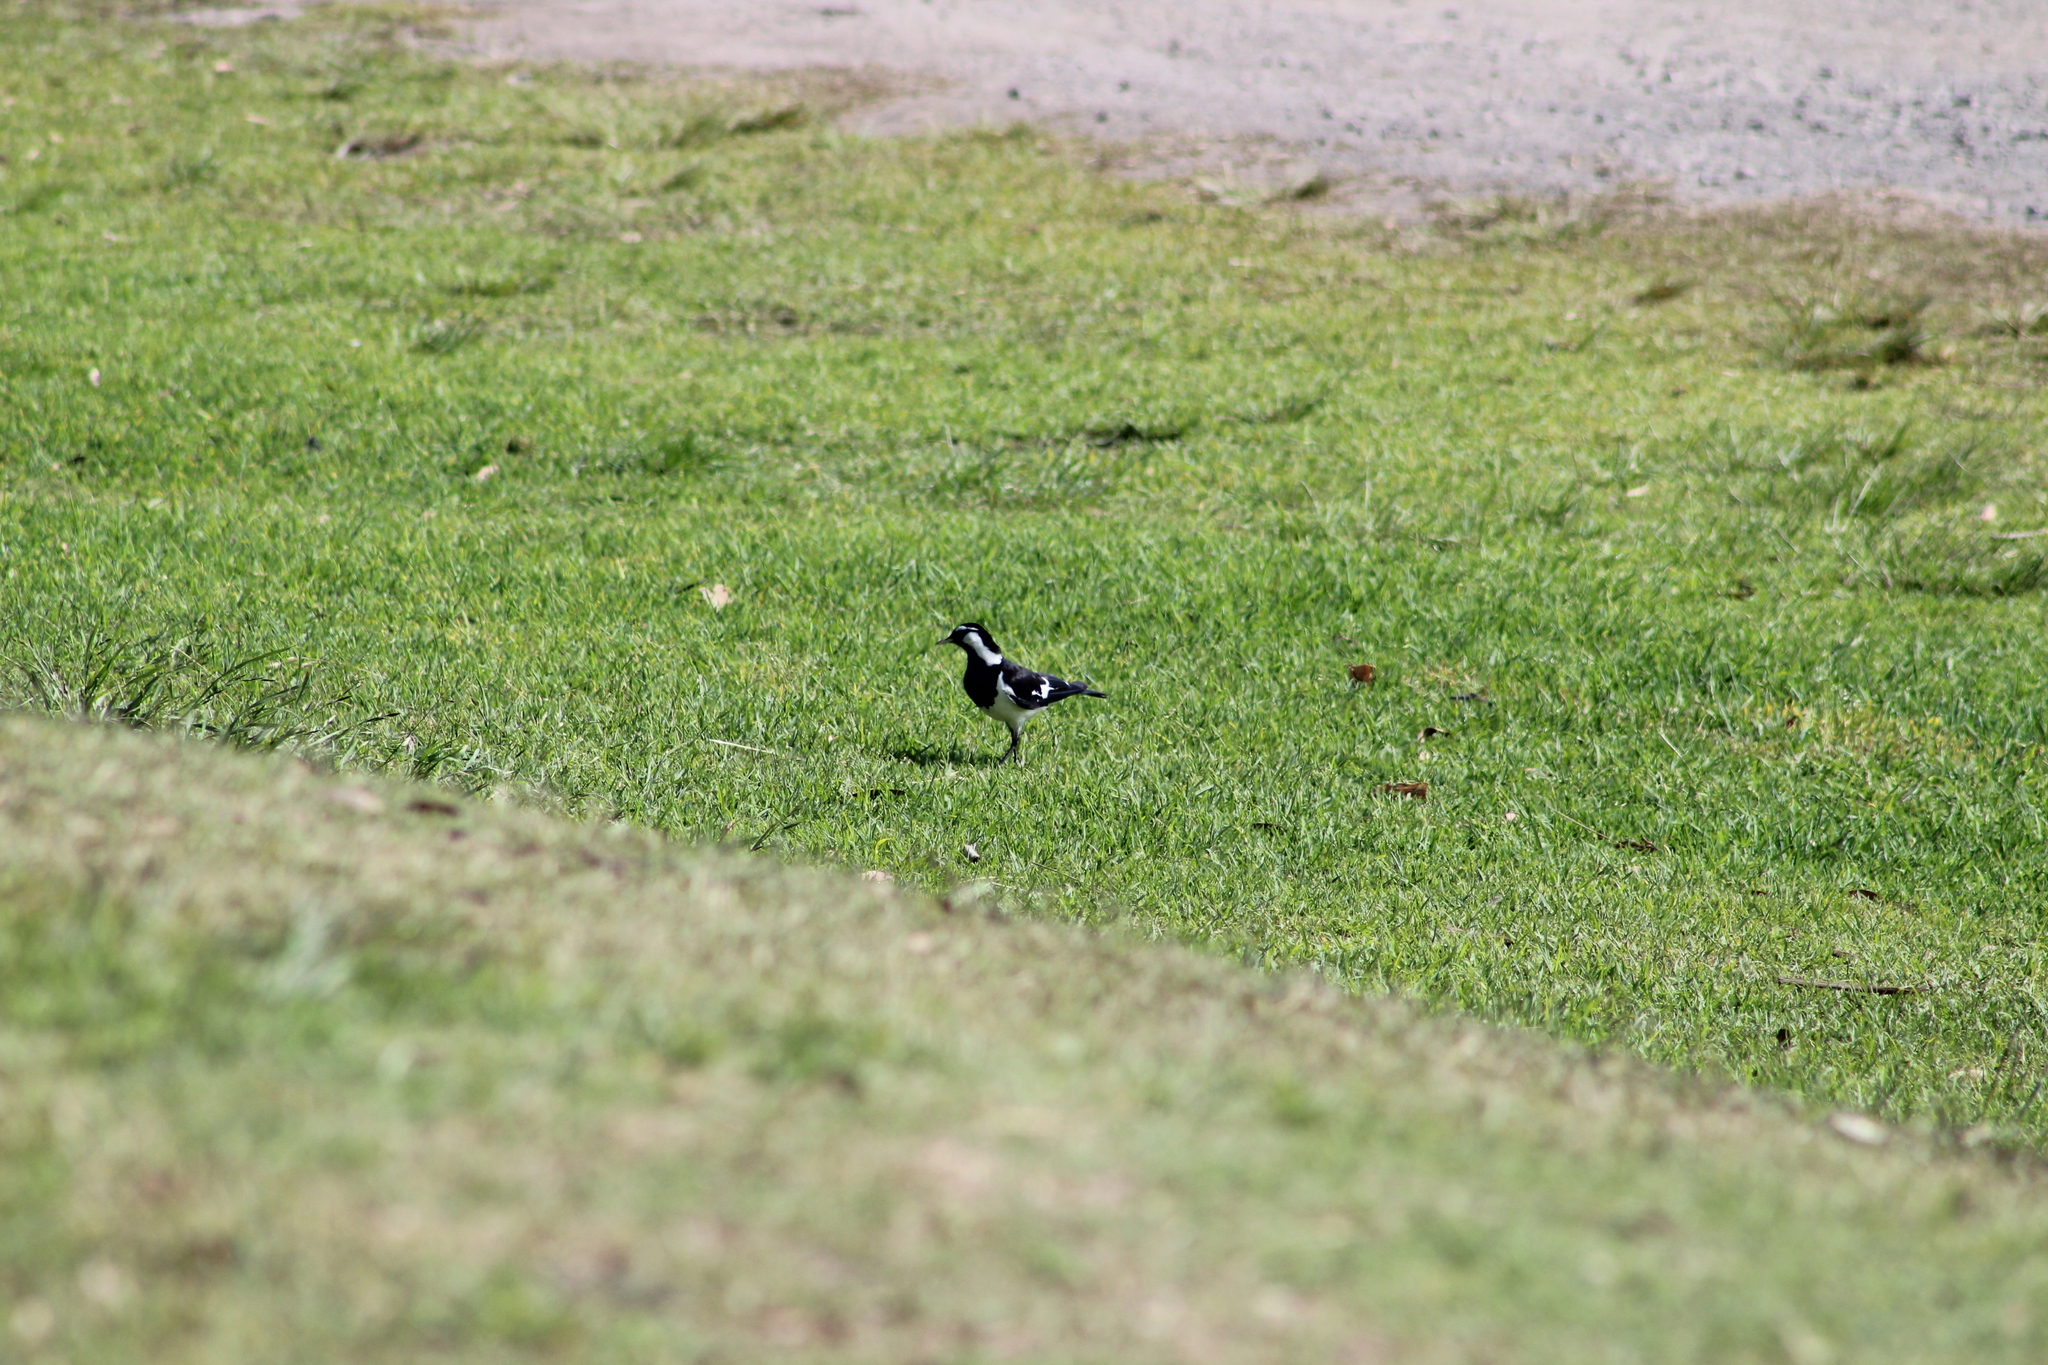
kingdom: Animalia
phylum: Chordata
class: Aves
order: Passeriformes
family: Monarchidae
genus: Grallina
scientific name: Grallina cyanoleuca
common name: Magpie-lark
